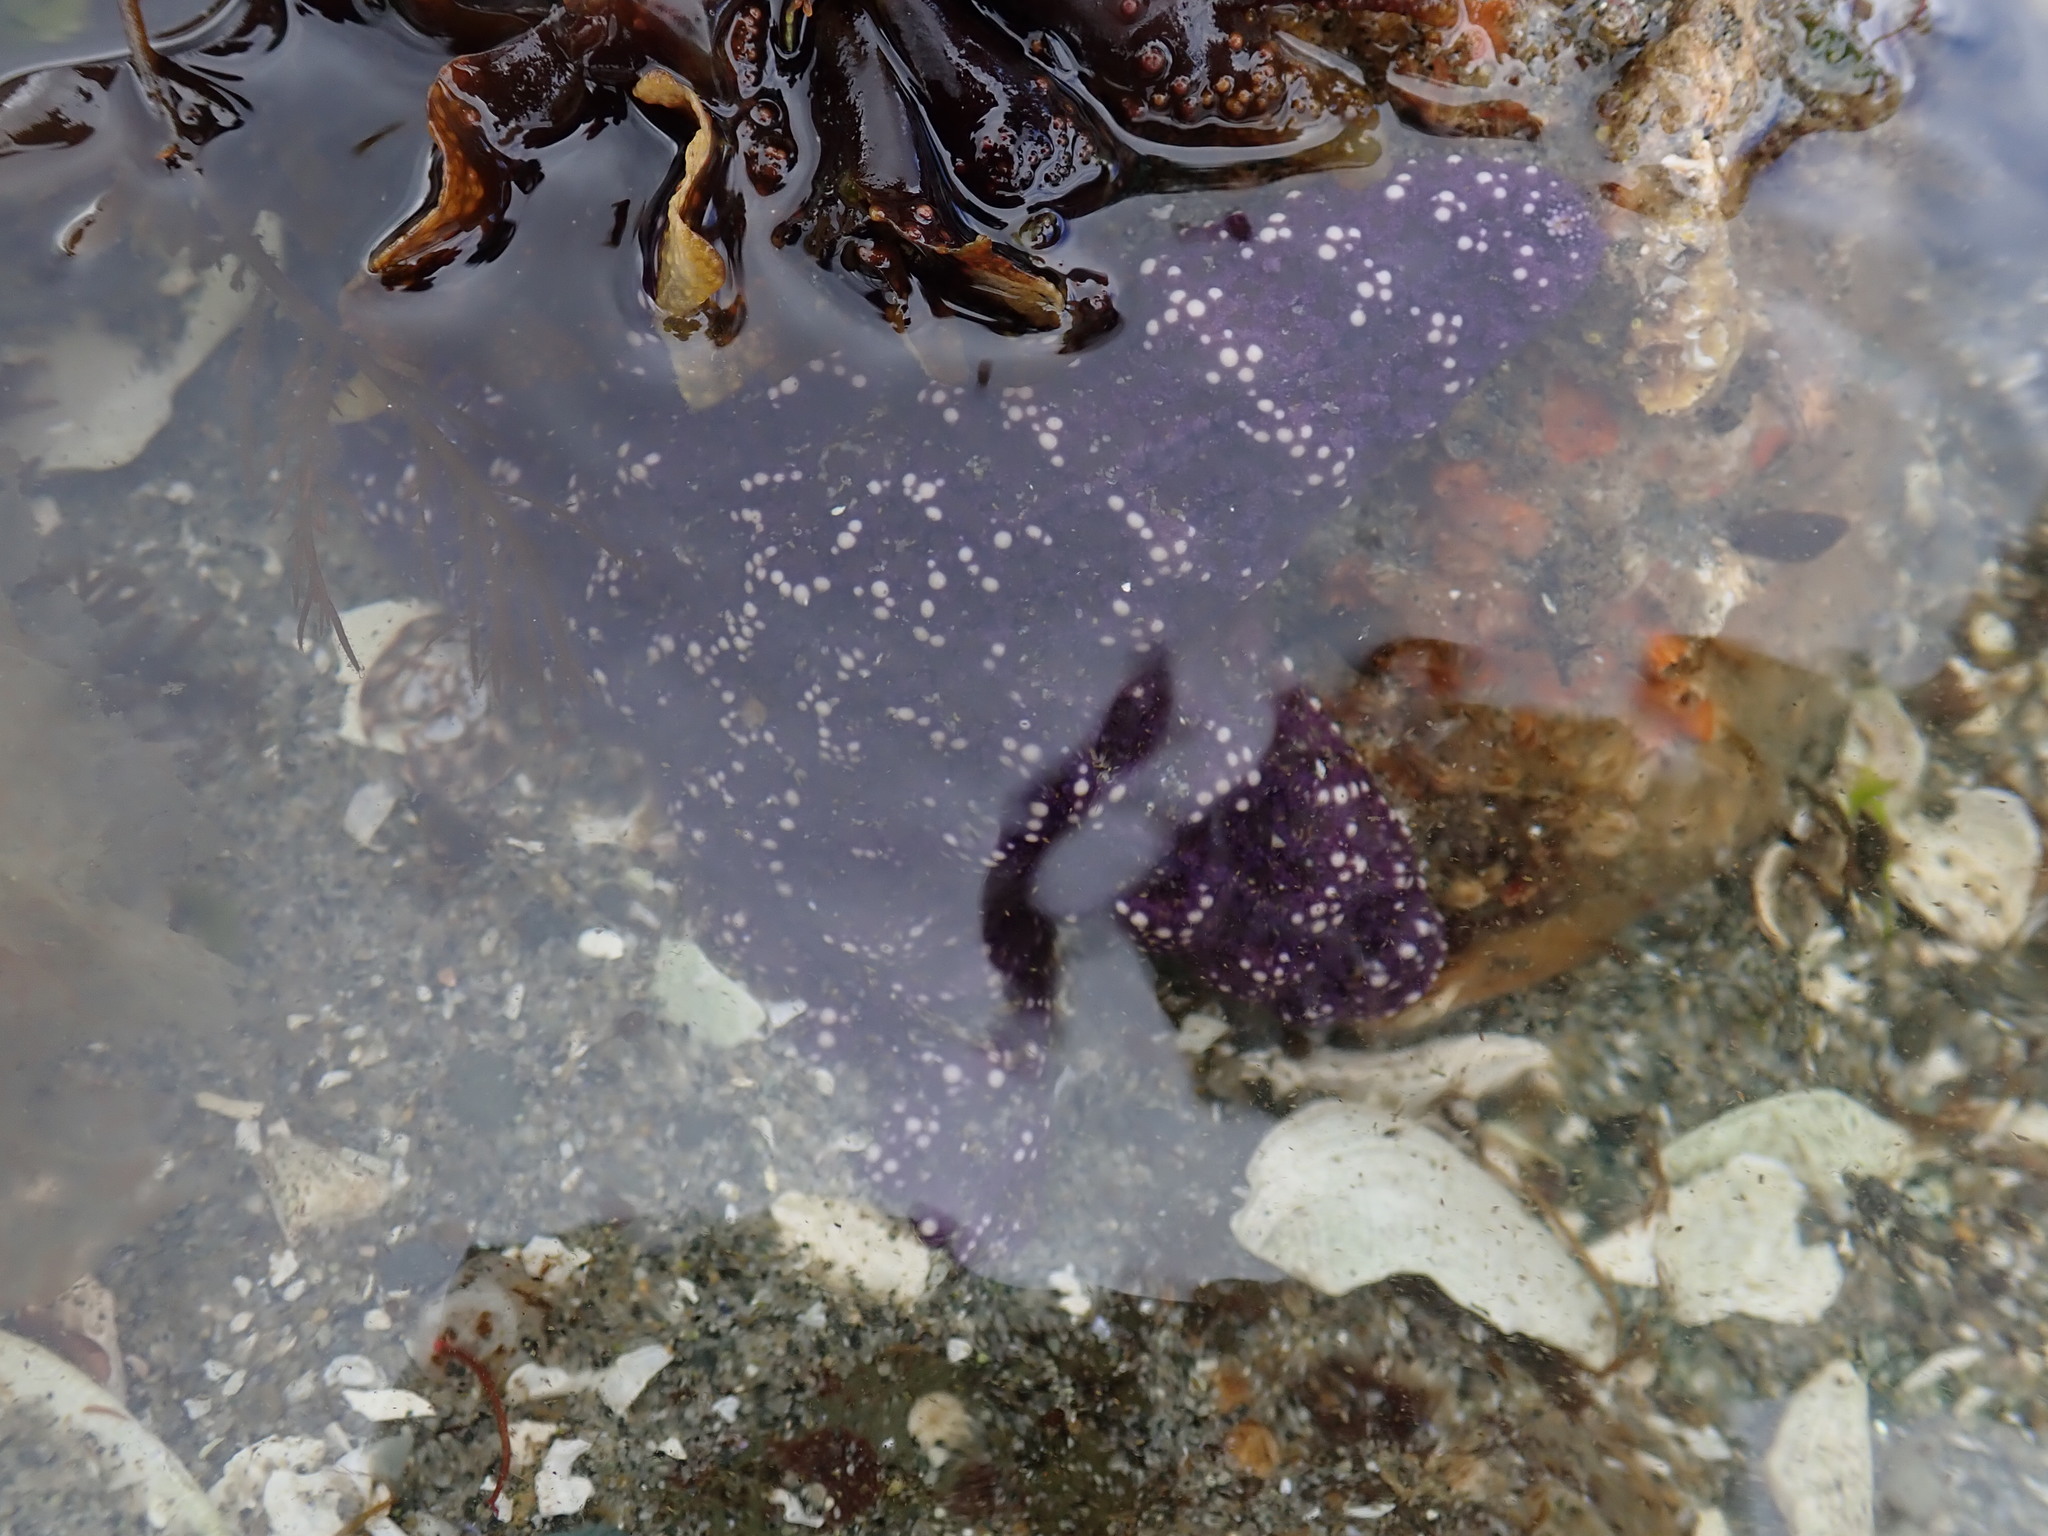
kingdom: Animalia
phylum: Echinodermata
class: Asteroidea
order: Forcipulatida
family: Asteriidae
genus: Pisaster
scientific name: Pisaster ochraceus
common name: Ochre stars
